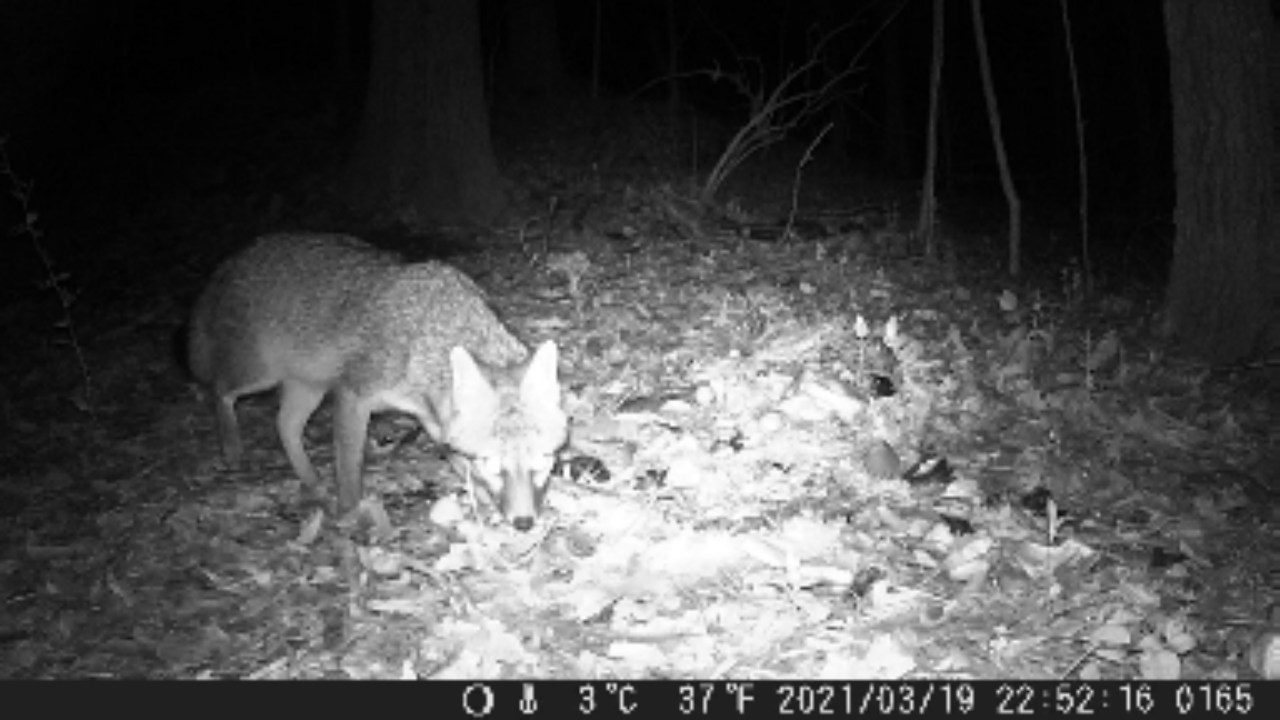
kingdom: Animalia
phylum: Chordata
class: Mammalia
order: Carnivora
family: Canidae
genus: Urocyon
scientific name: Urocyon cinereoargenteus
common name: Gray fox
